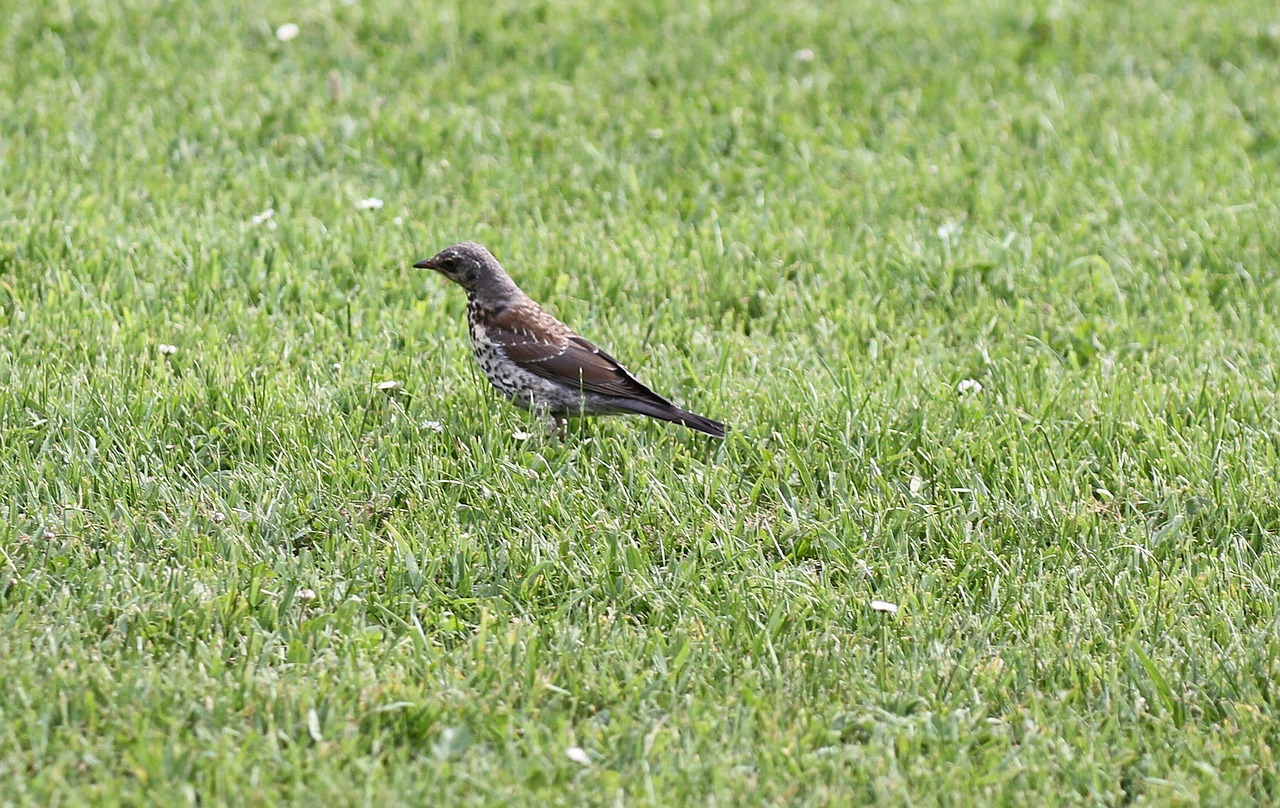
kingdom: Animalia
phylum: Chordata
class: Aves
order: Passeriformes
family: Turdidae
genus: Turdus
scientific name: Turdus pilaris
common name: Fieldfare
